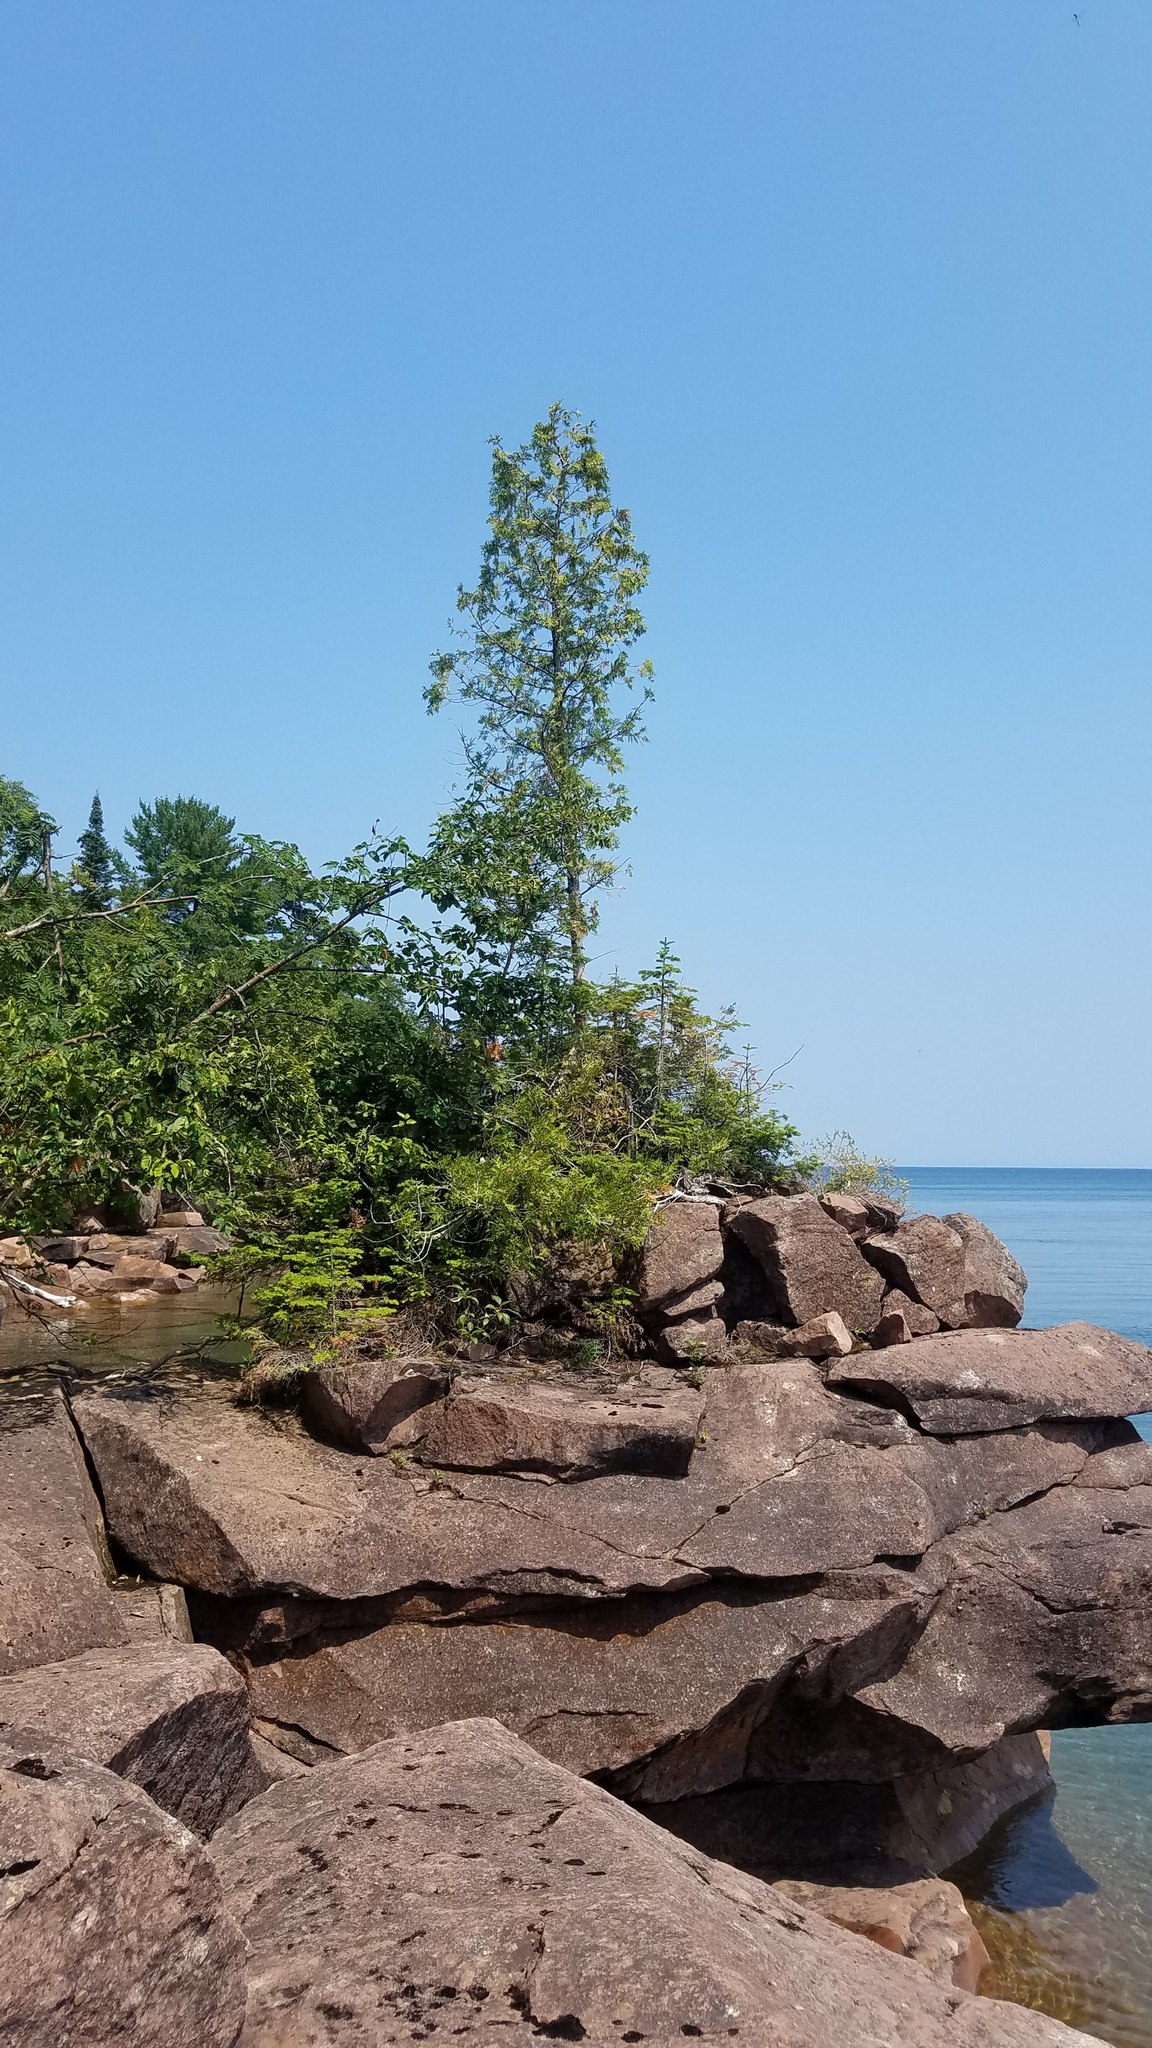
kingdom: Plantae
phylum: Tracheophyta
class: Pinopsida
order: Pinales
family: Cupressaceae
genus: Thuja
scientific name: Thuja occidentalis
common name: Northern white-cedar
